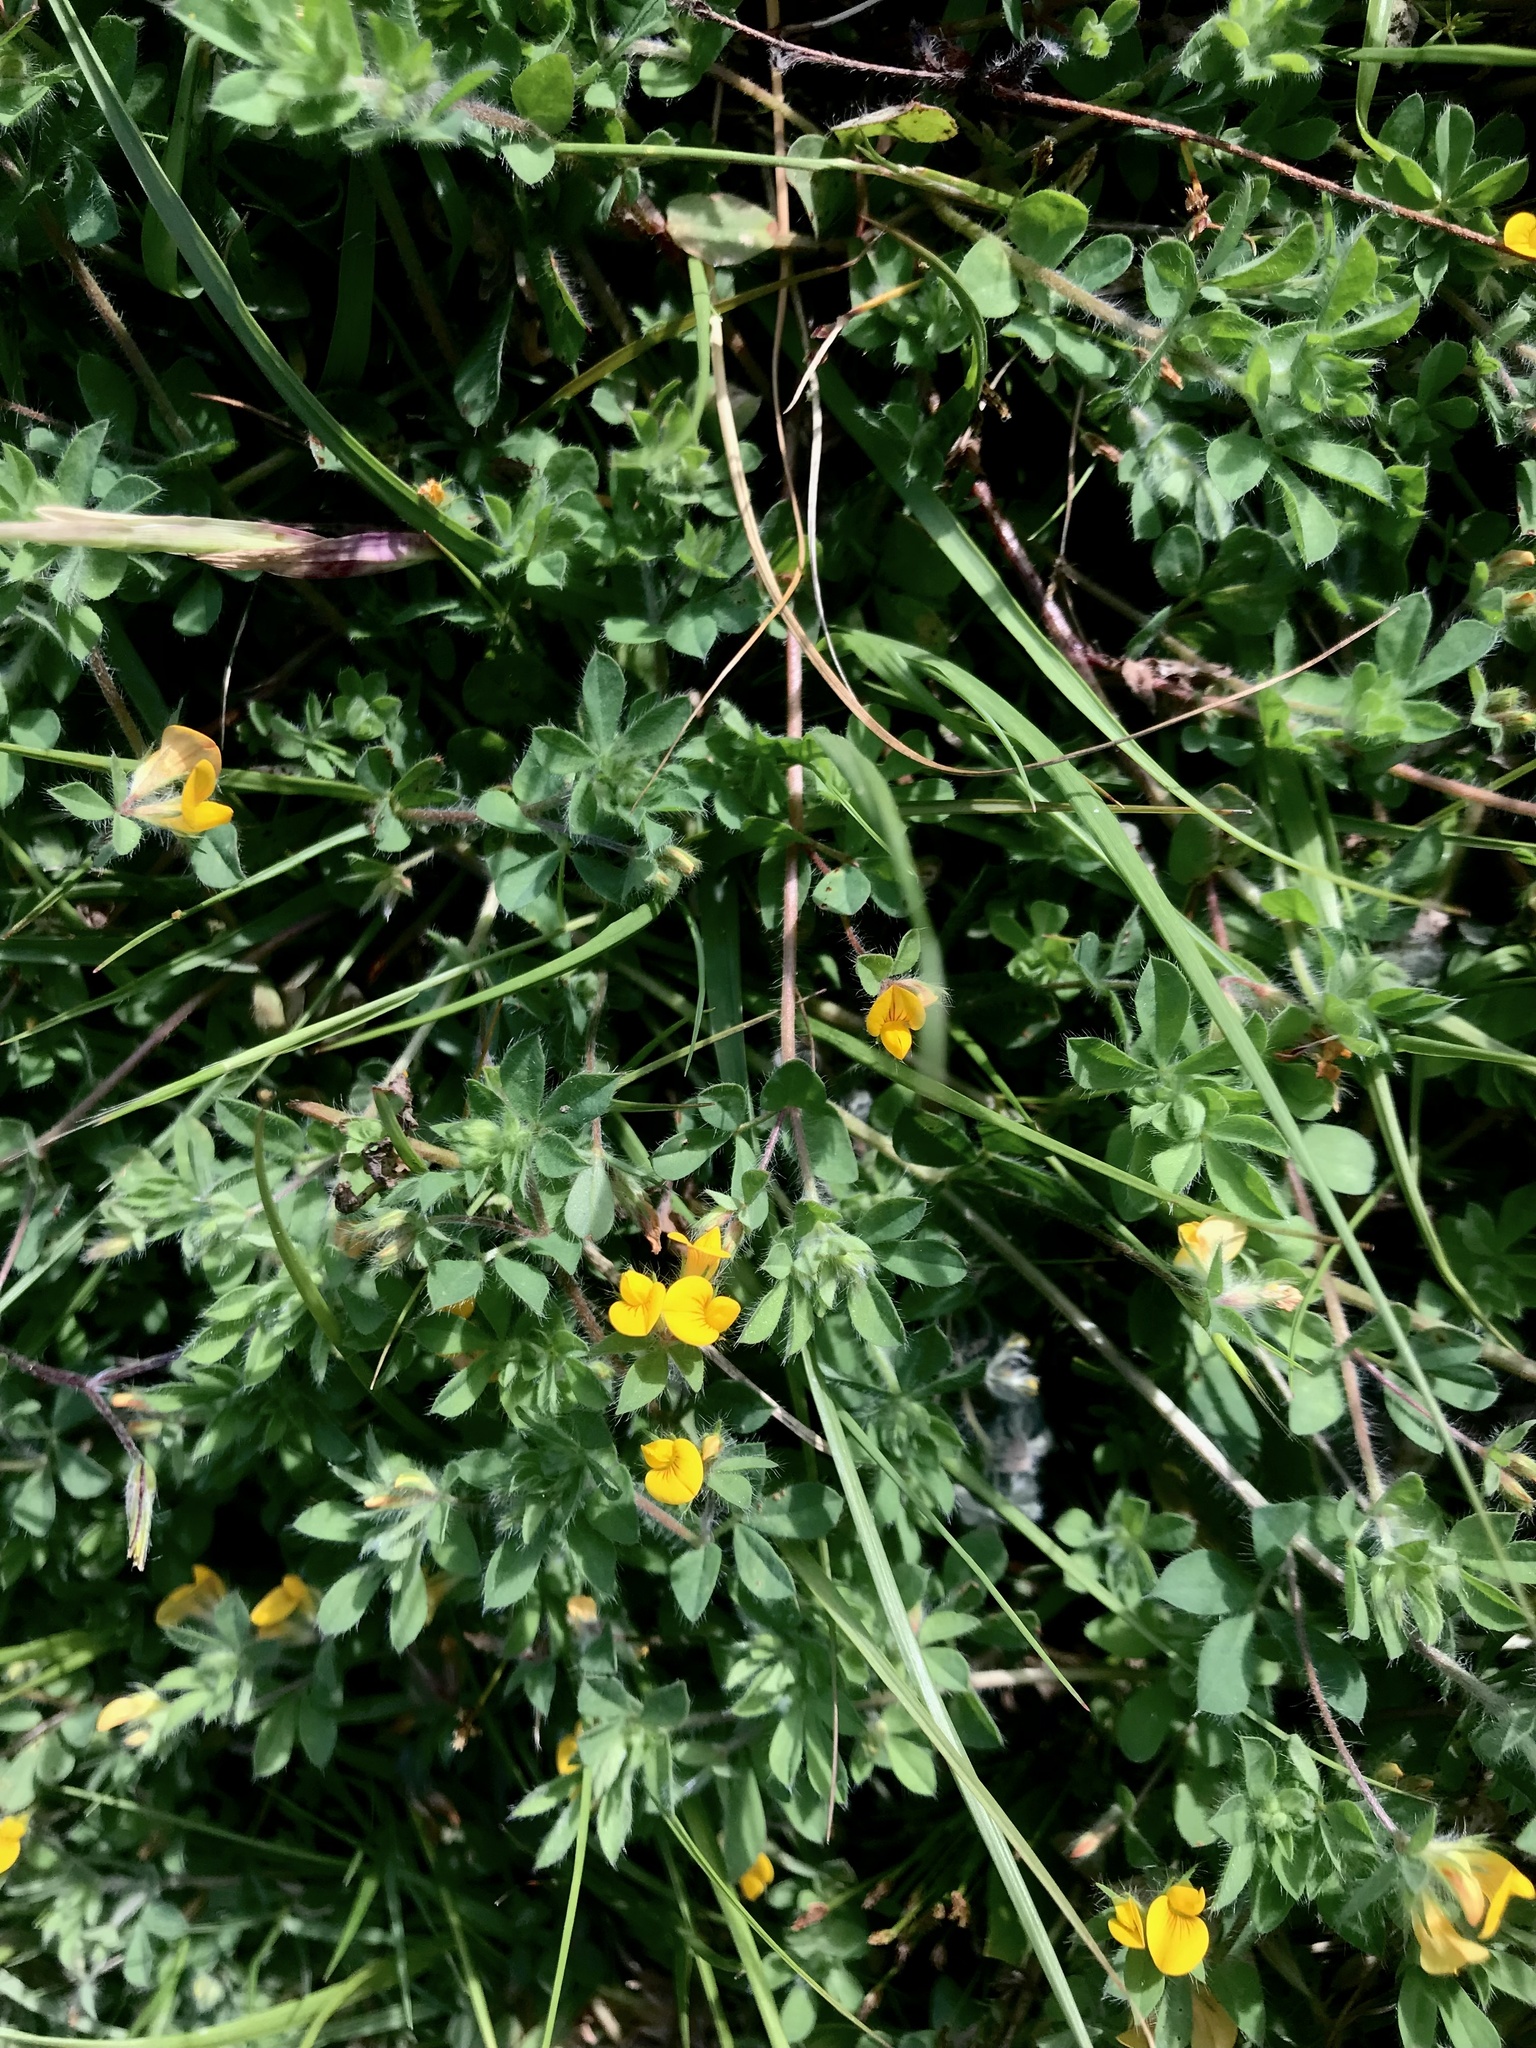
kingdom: Plantae
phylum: Tracheophyta
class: Magnoliopsida
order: Fabales
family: Fabaceae
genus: Lotus
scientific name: Lotus subbiflorus
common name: Hairy bird's-foot trefoil
